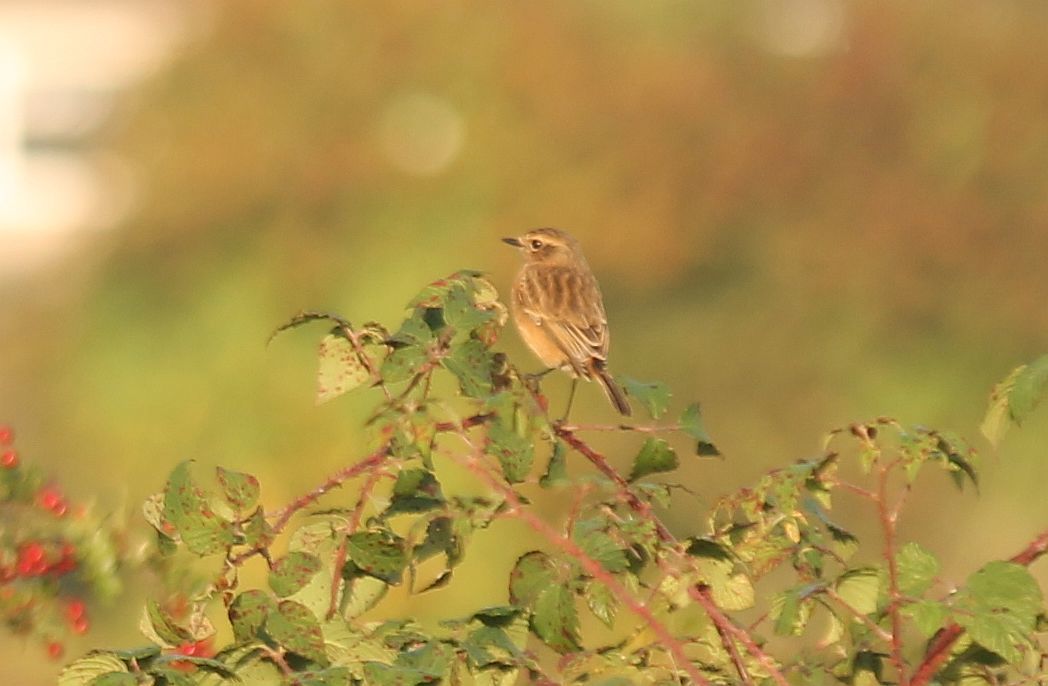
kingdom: Animalia
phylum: Chordata
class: Aves
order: Passeriformes
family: Muscicapidae
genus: Saxicola
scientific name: Saxicola rubicola
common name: European stonechat
